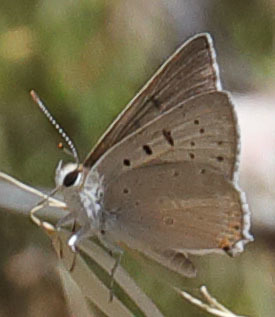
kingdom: Animalia
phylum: Arthropoda
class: Insecta
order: Lepidoptera
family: Lycaenidae
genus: Tharsalea
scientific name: Tharsalea xanthoides
